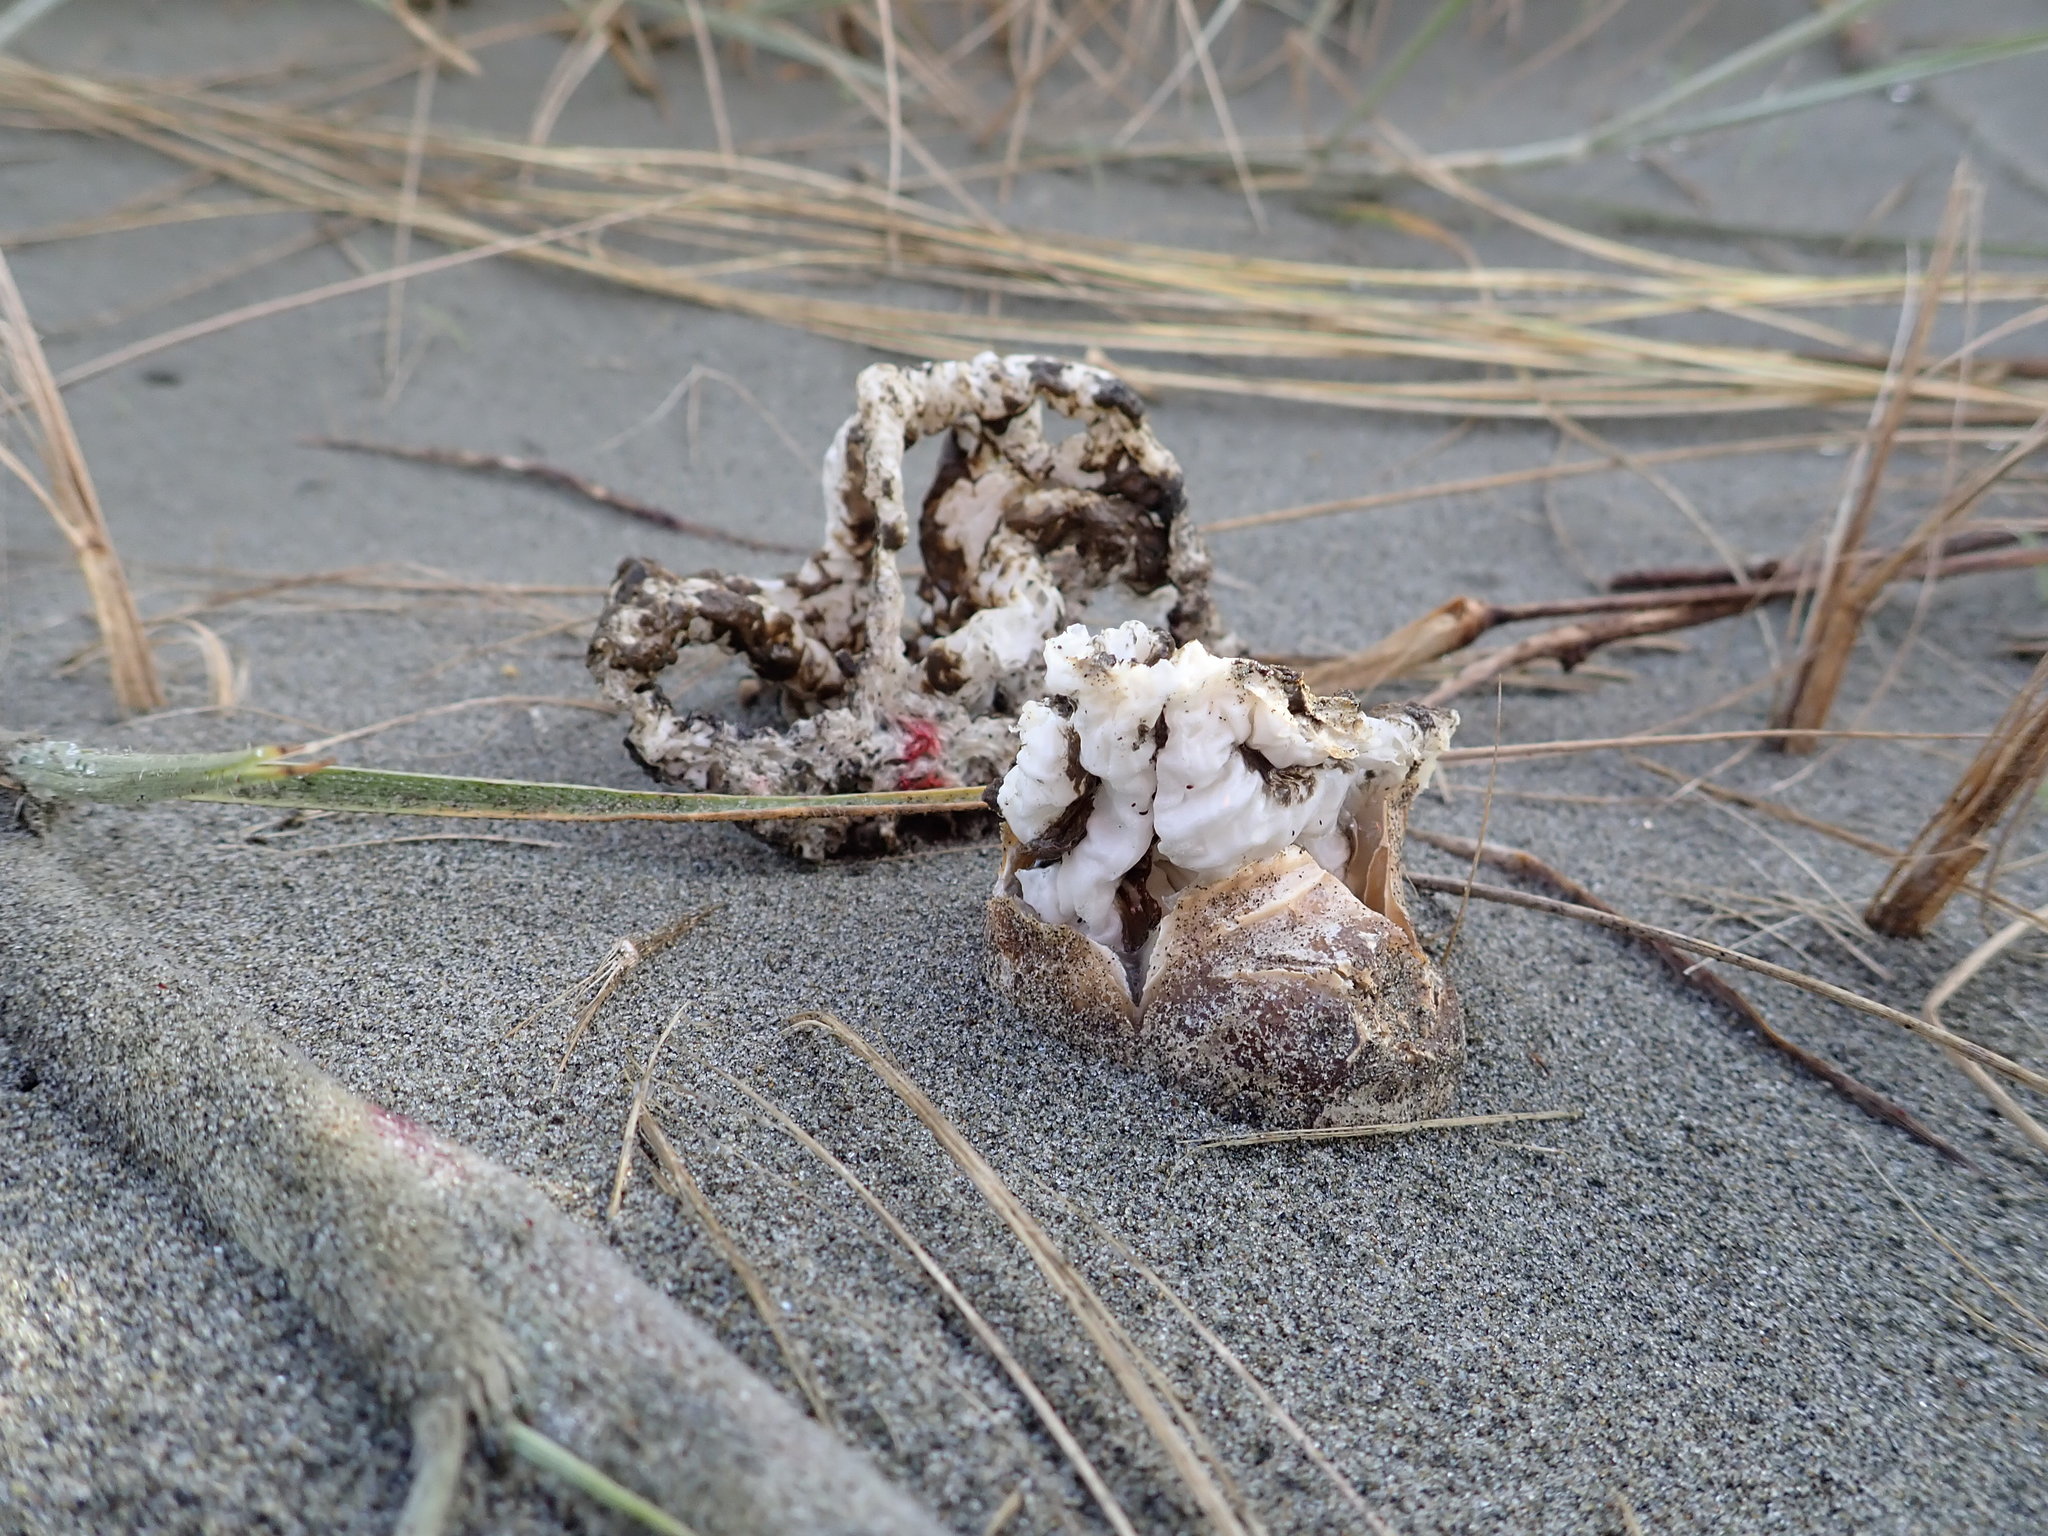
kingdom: Fungi
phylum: Basidiomycota
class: Agaricomycetes
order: Phallales
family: Phallaceae
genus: Ileodictyon
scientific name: Ileodictyon cibarium
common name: Basket fungus
